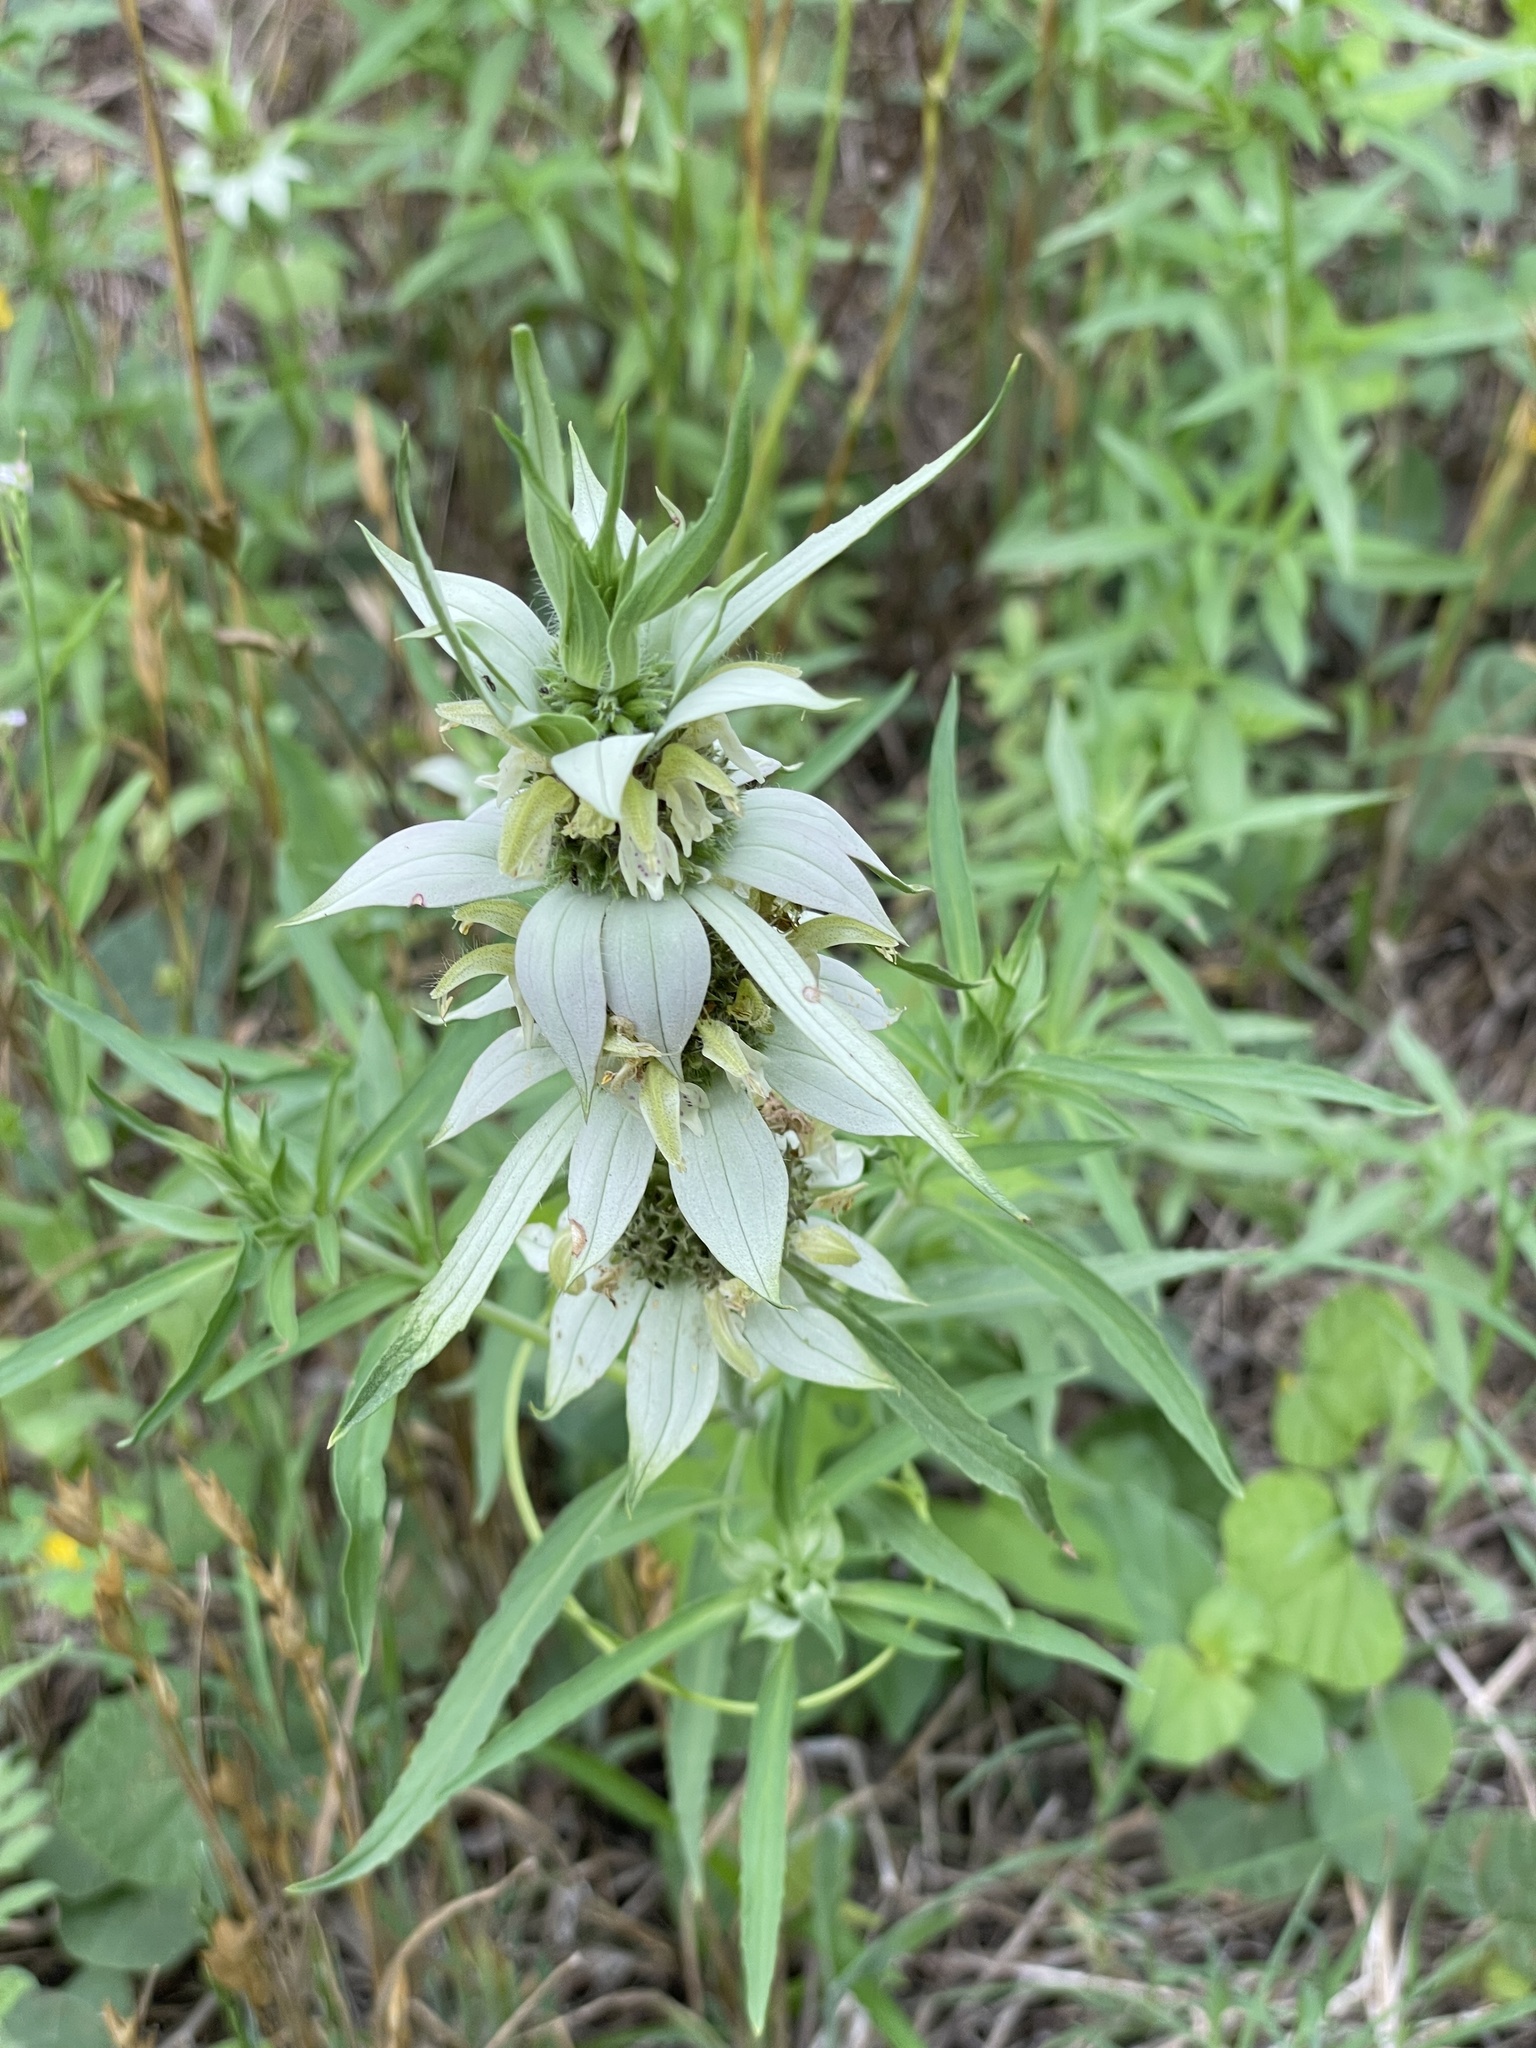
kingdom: Plantae
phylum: Tracheophyta
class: Magnoliopsida
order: Lamiales
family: Lamiaceae
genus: Monarda
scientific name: Monarda punctata
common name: Dotted monarda
